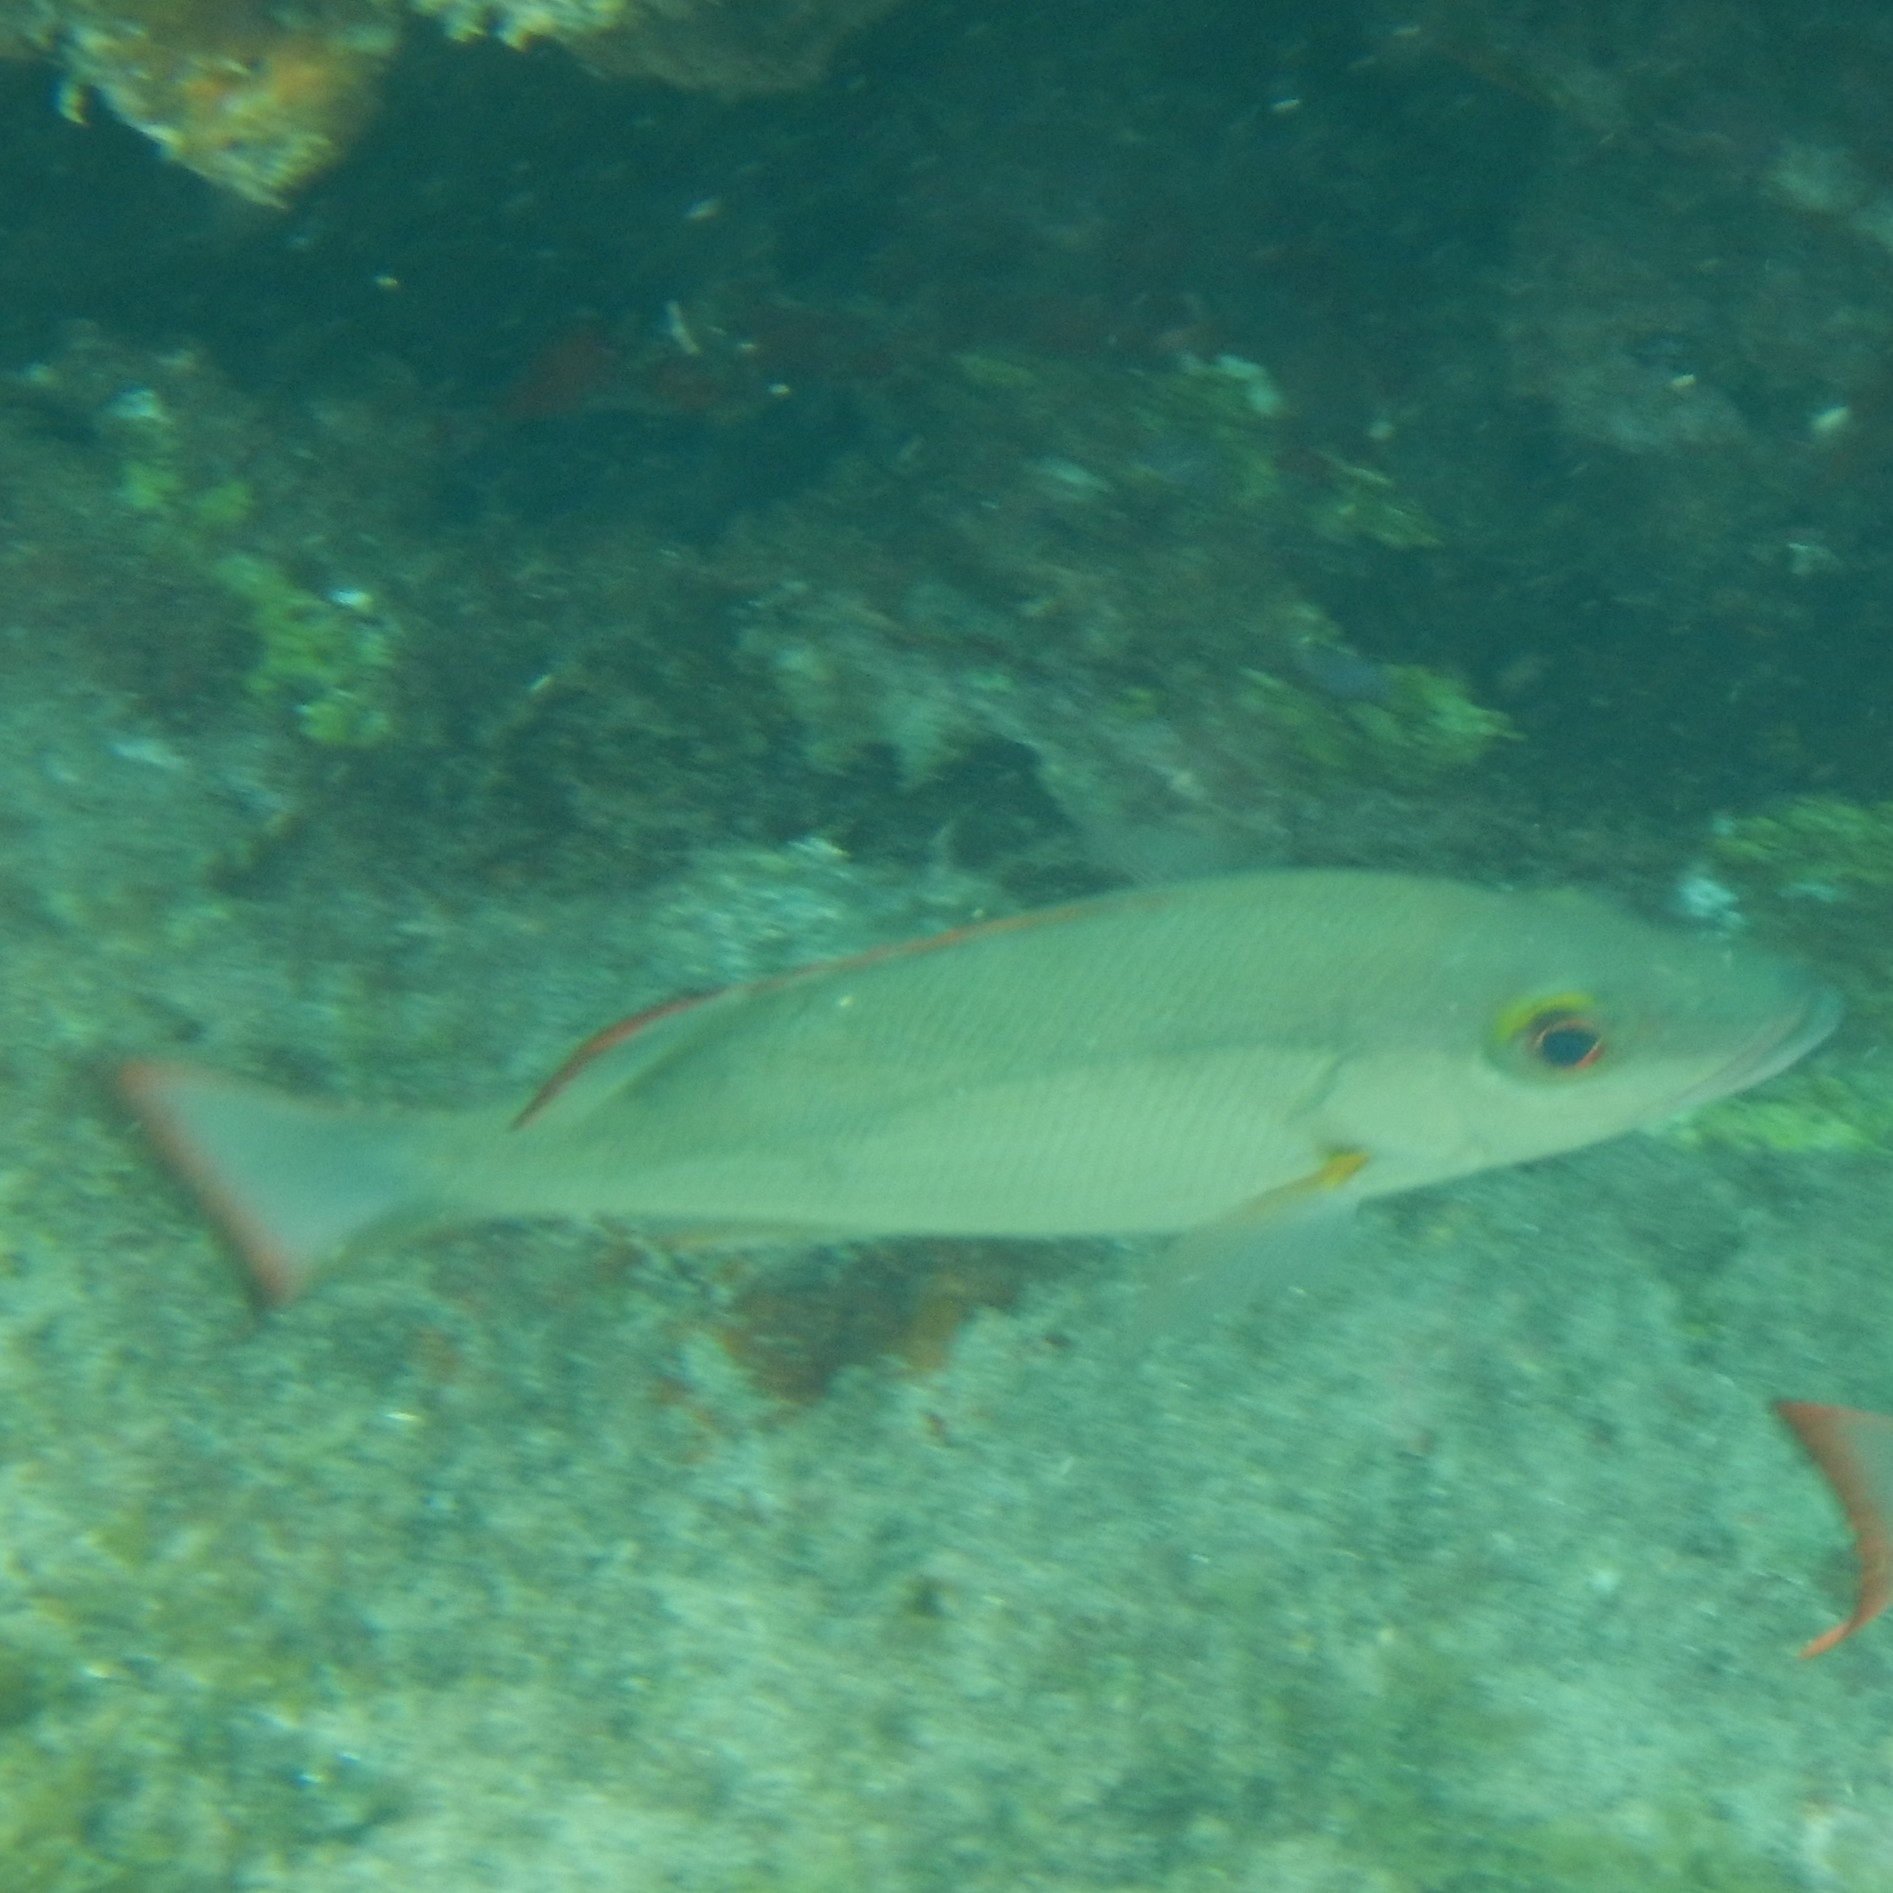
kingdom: Animalia
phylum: Chordata
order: Perciformes
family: Lutjanidae
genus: Lutjanus
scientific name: Lutjanus mahogoni
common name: Spot snapper
